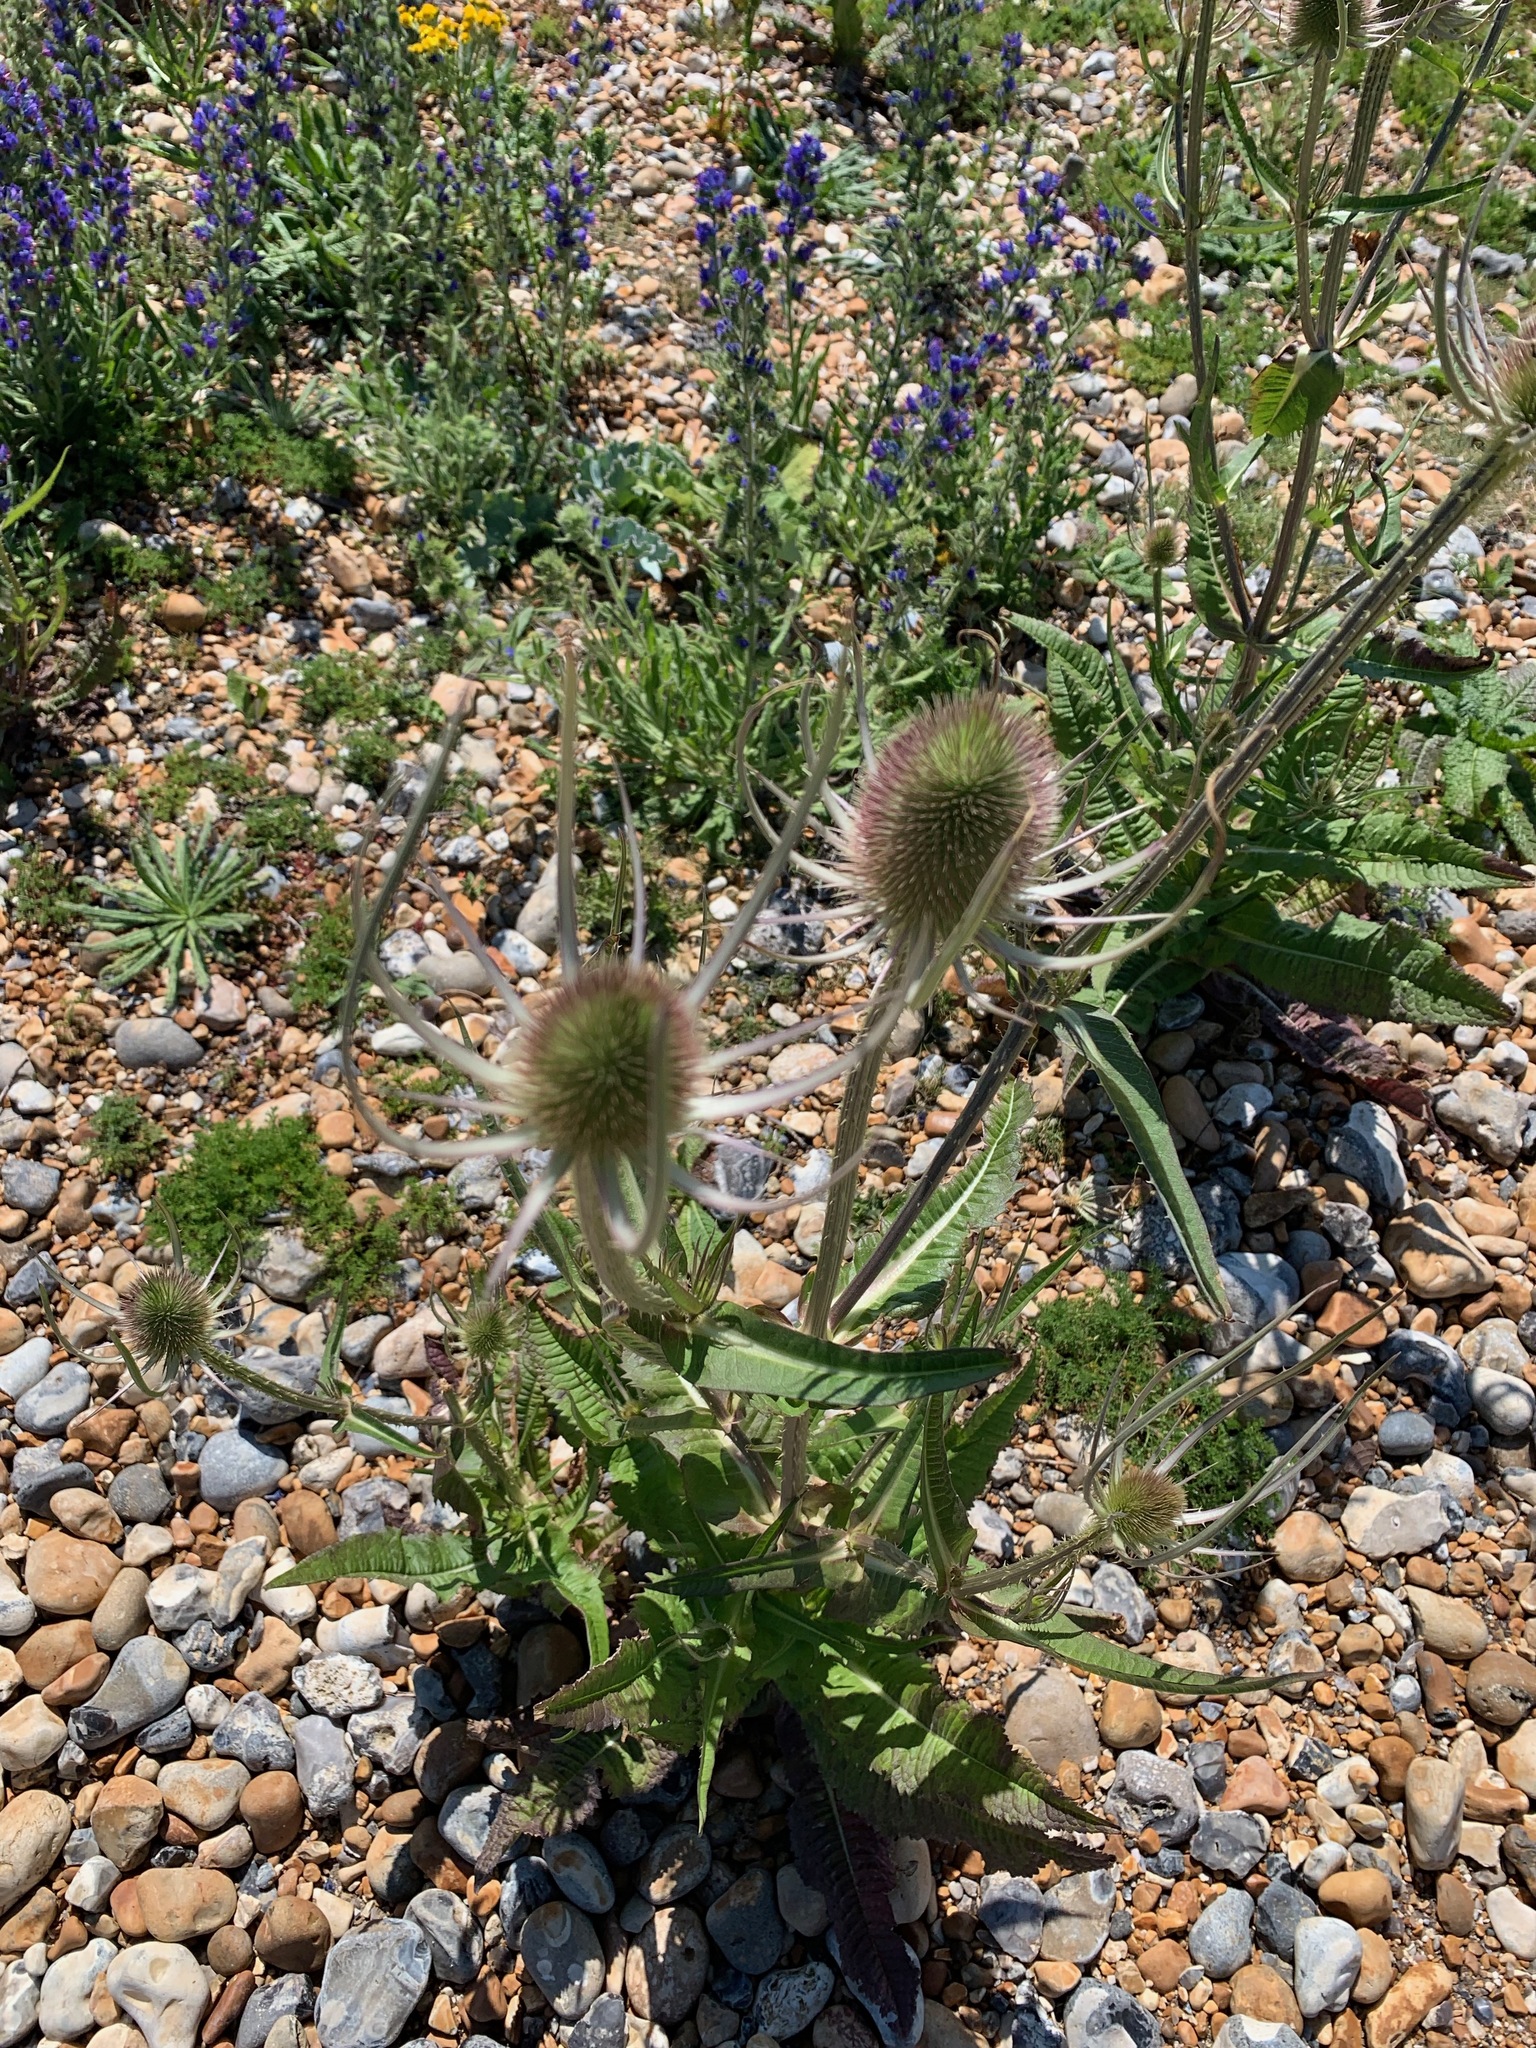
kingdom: Plantae
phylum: Tracheophyta
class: Magnoliopsida
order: Dipsacales
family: Caprifoliaceae
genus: Dipsacus
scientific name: Dipsacus fullonum
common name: Teasel
